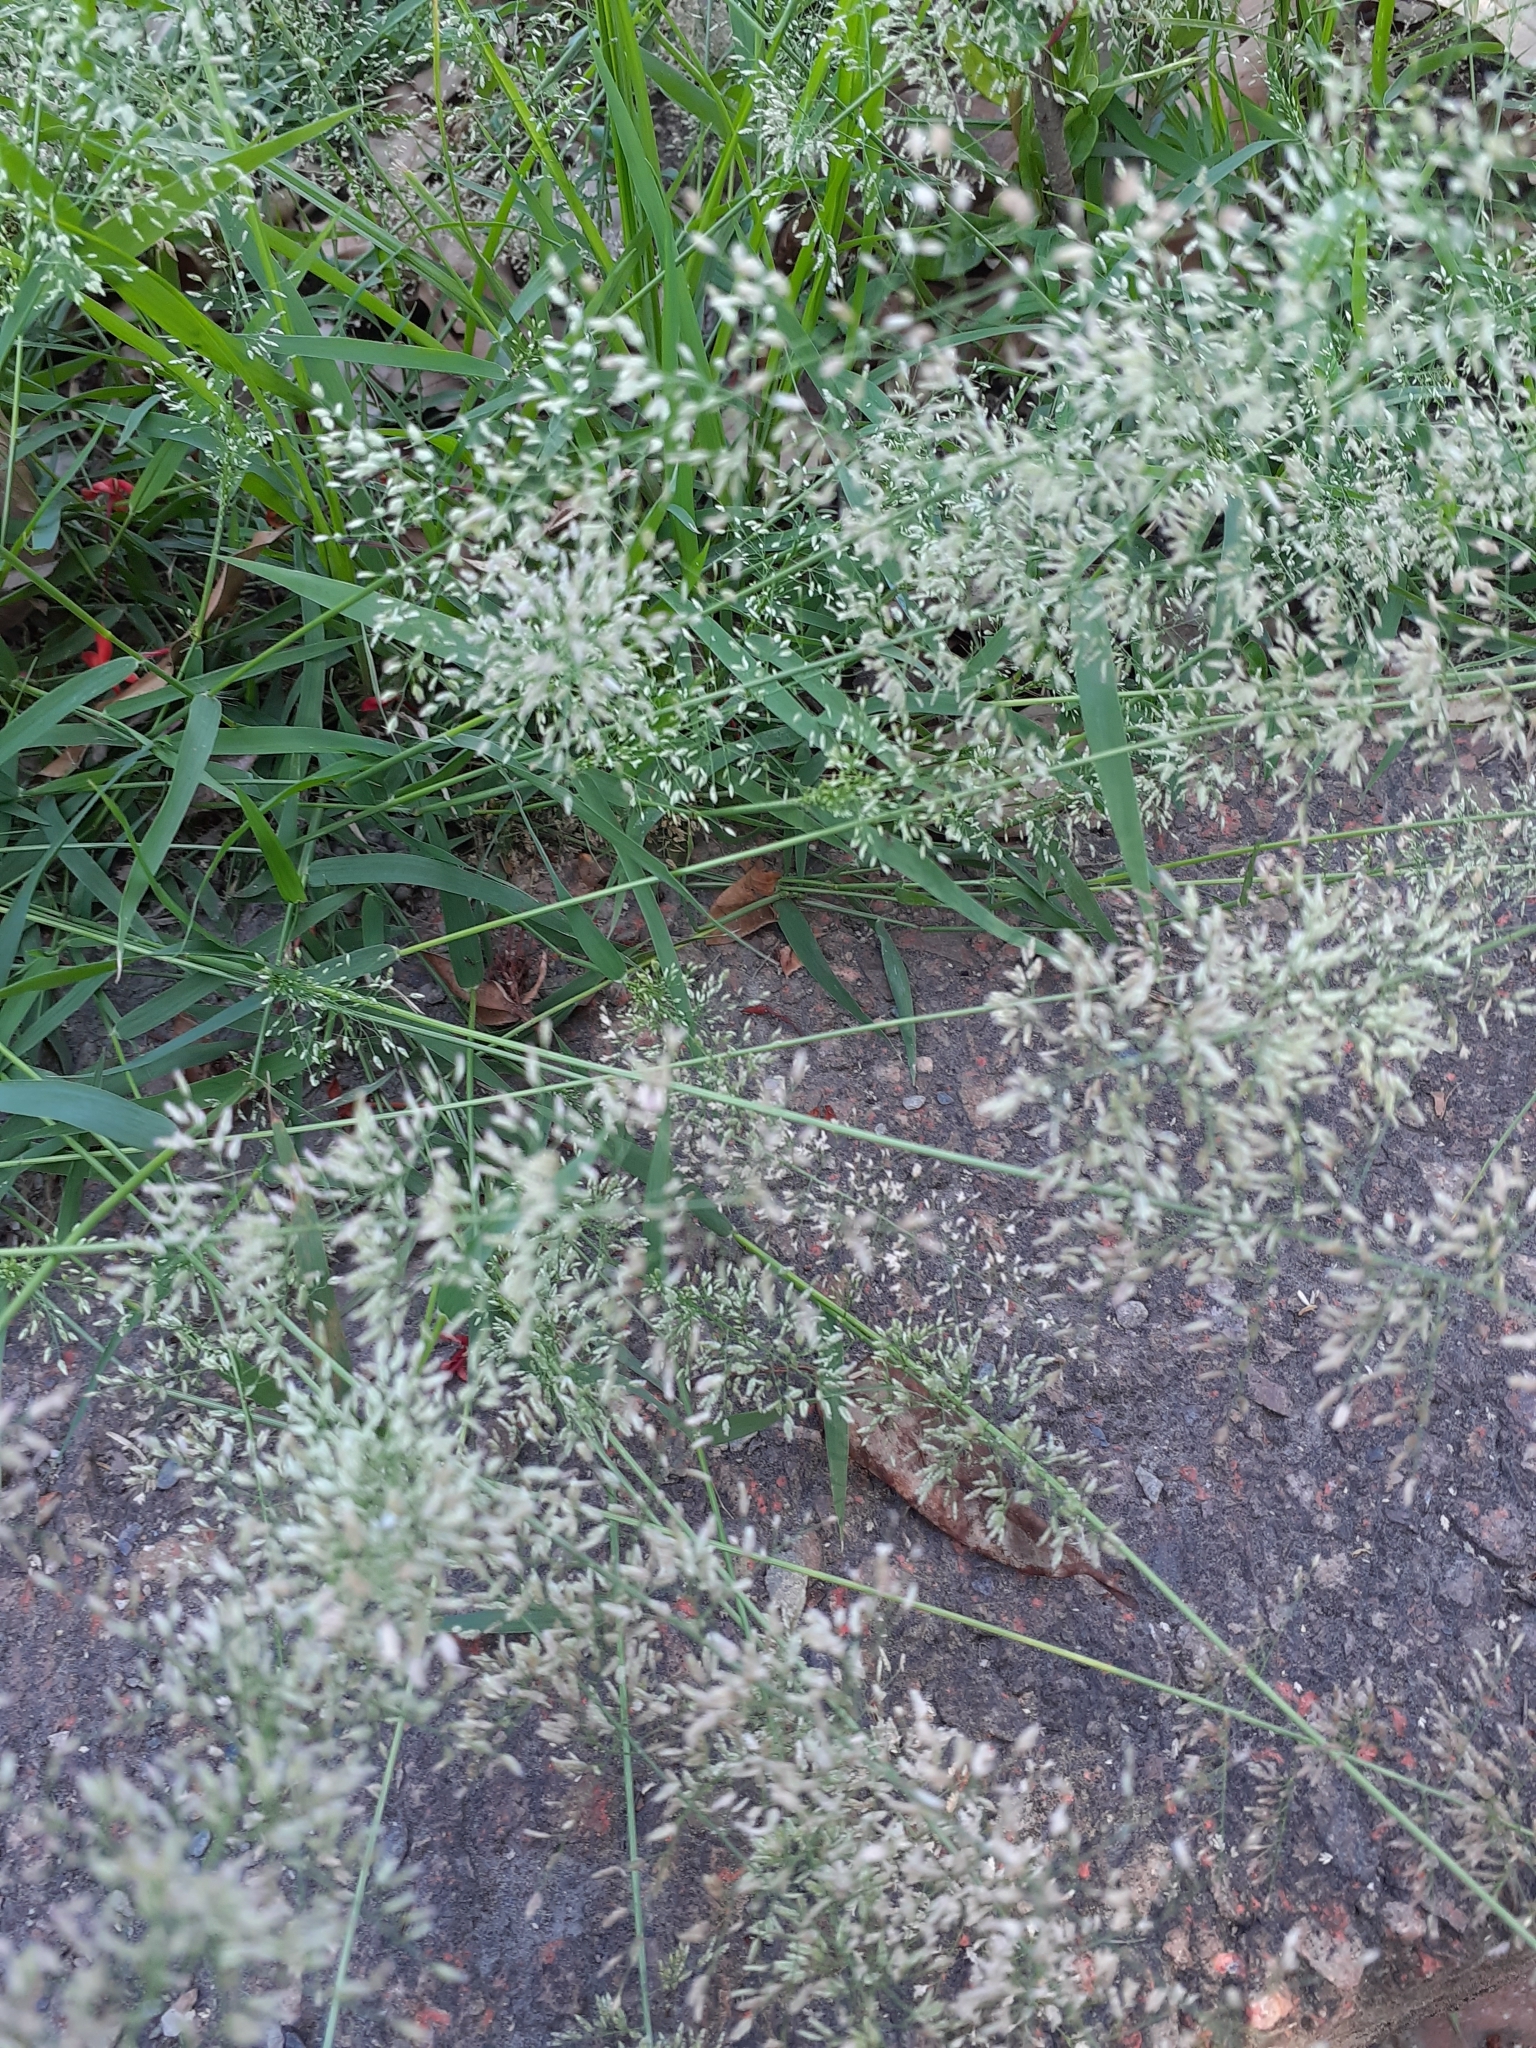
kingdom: Plantae
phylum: Tracheophyta
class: Liliopsida
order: Poales
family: Poaceae
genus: Eragrostis
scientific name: Eragrostis tenella
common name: Japanese lovegrass
